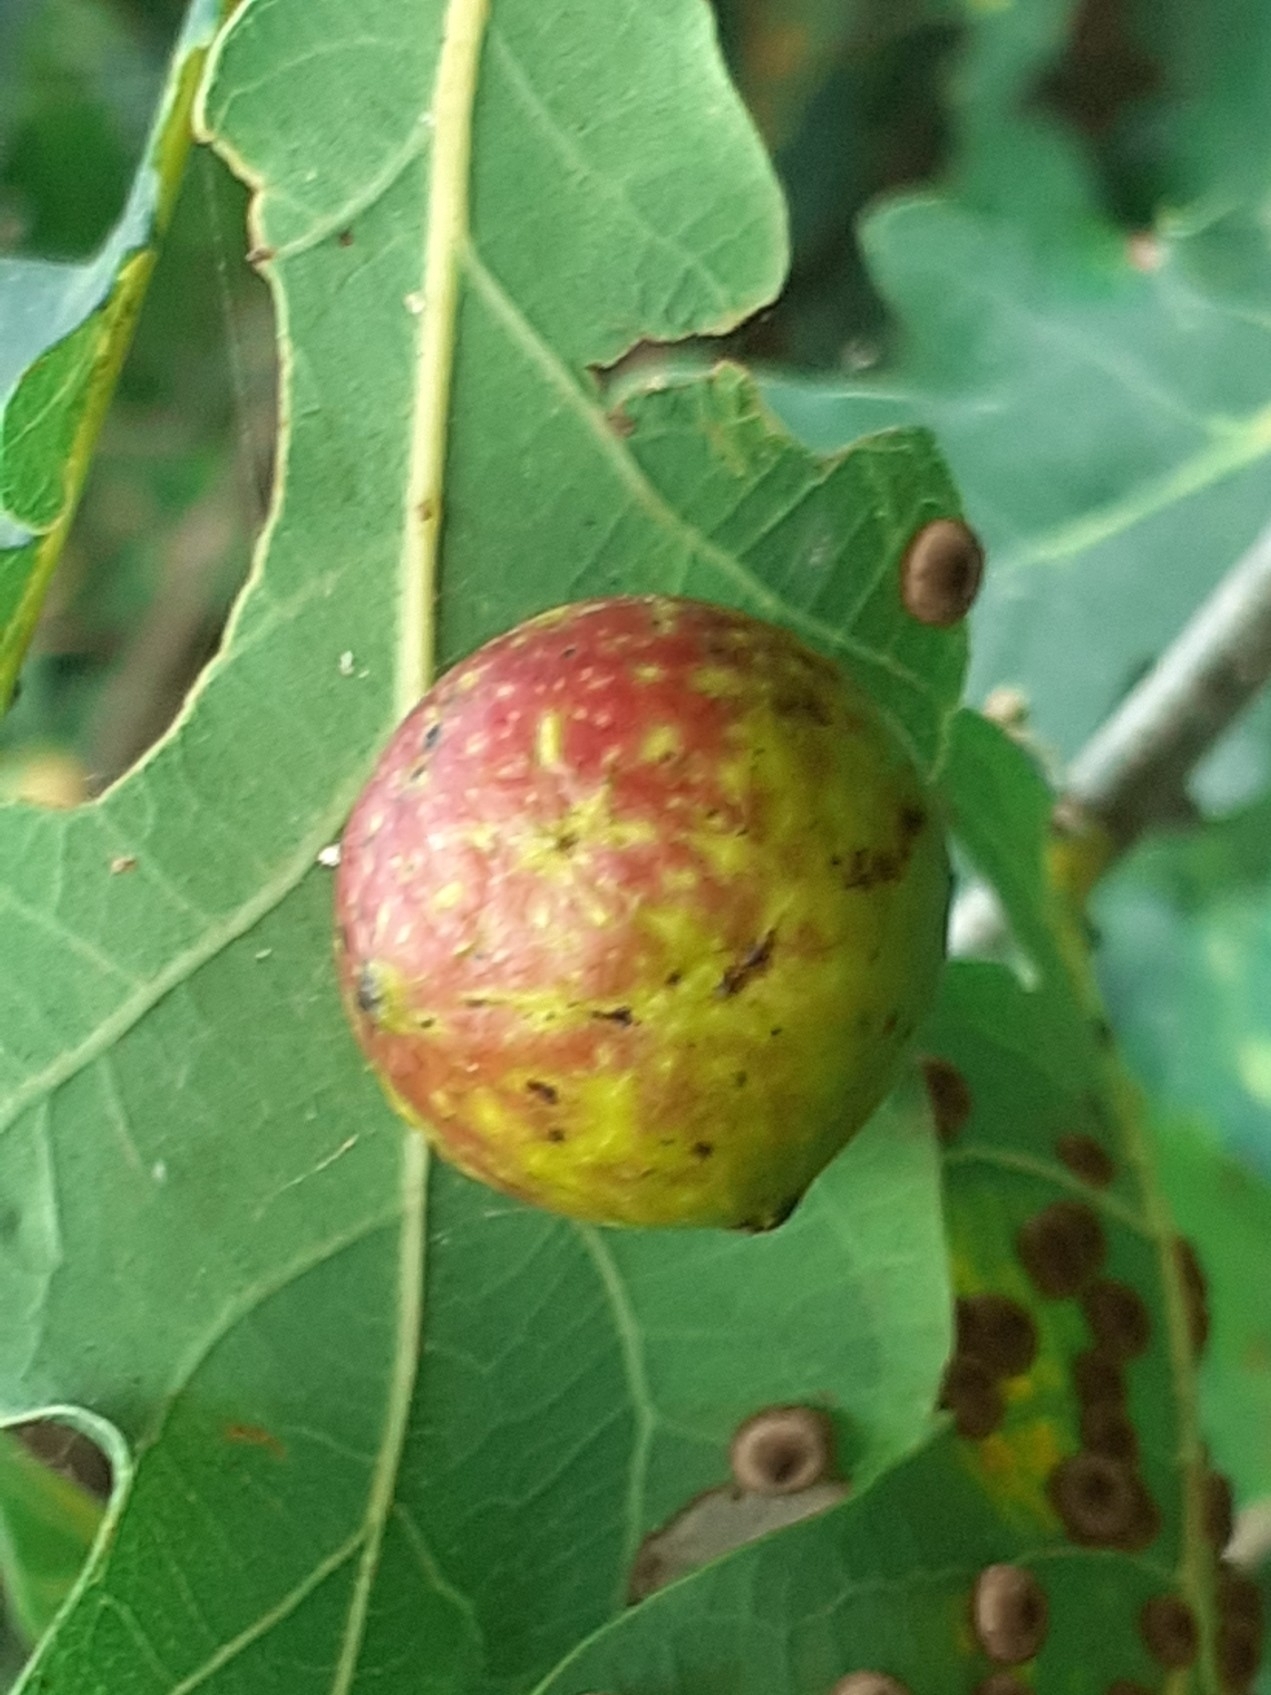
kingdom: Animalia
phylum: Arthropoda
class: Insecta
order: Hymenoptera
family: Cynipidae
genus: Cynips
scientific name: Cynips quercusfolii
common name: Cherry gall
